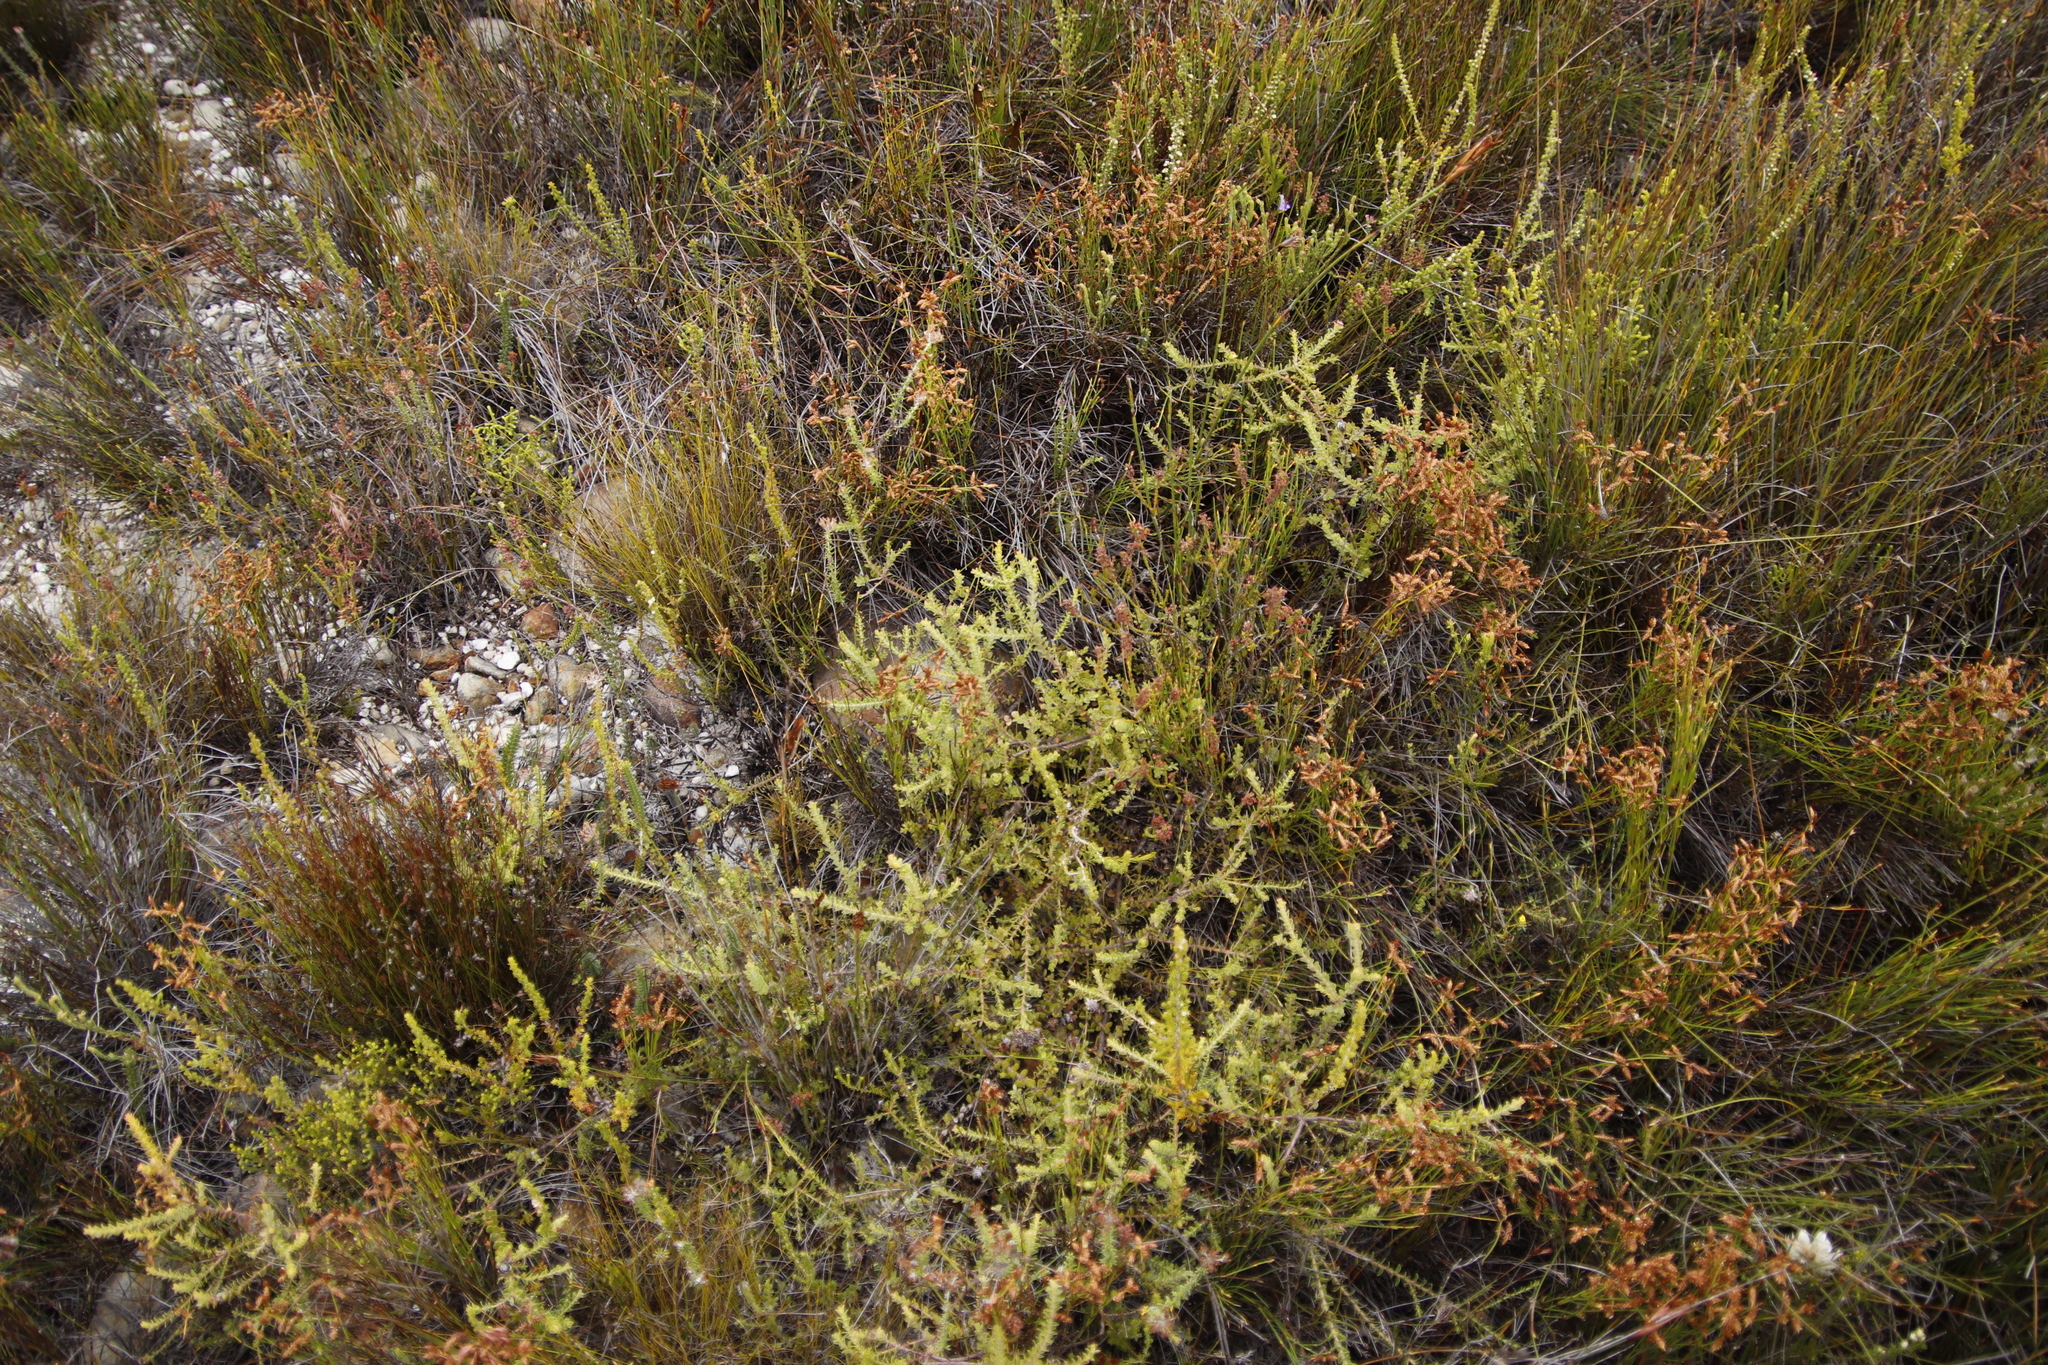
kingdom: Plantae
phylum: Tracheophyta
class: Magnoliopsida
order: Proteales
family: Proteaceae
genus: Diastella
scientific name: Diastella divaricata
